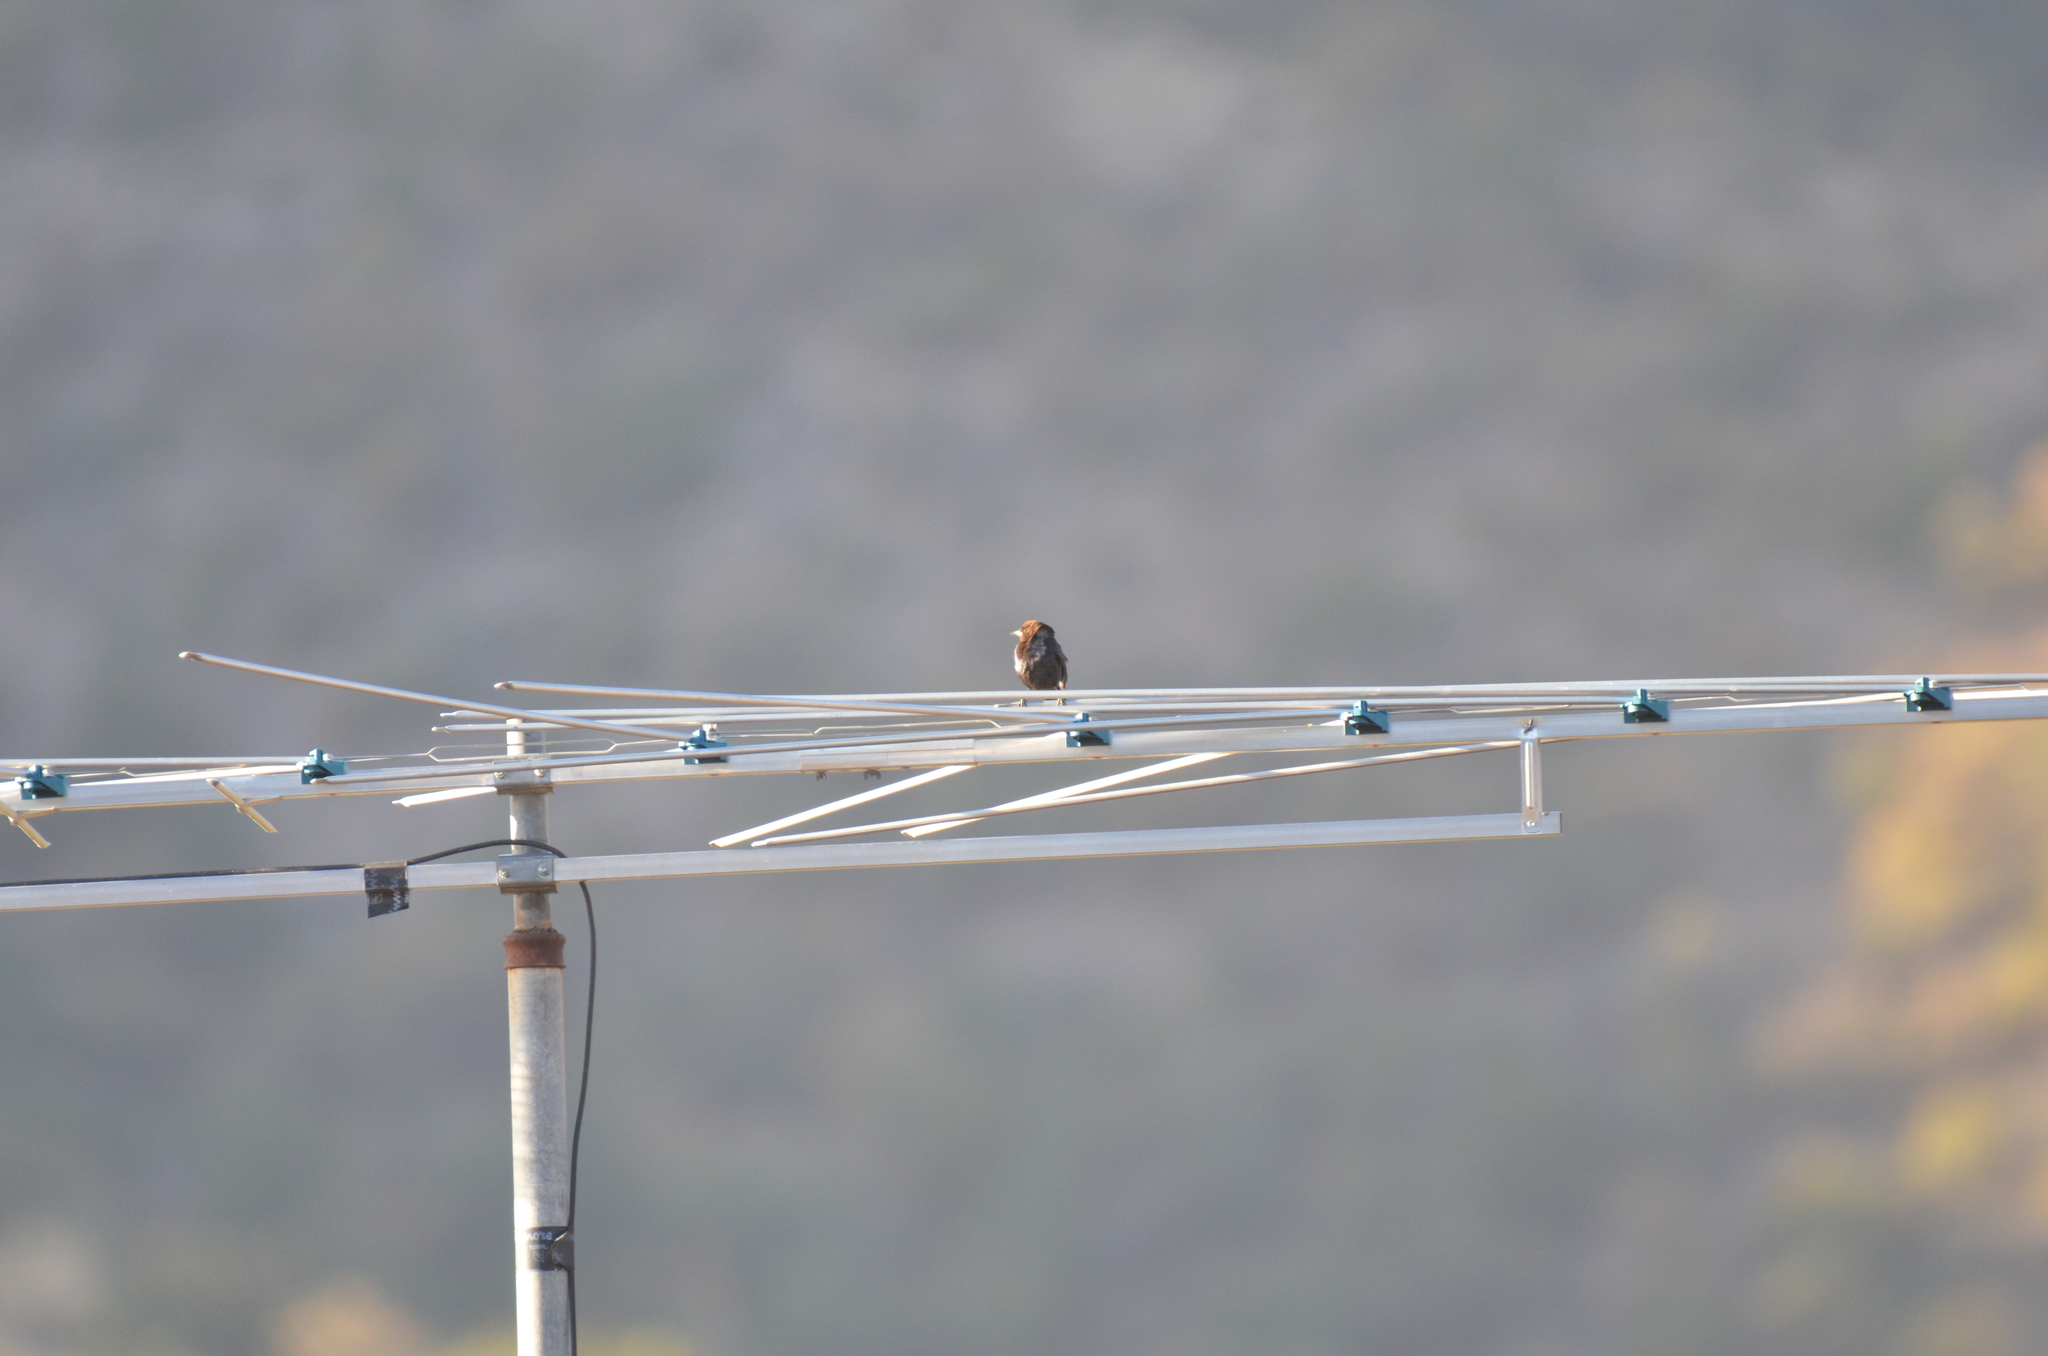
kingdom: Animalia
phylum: Chordata
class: Aves
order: Passeriformes
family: Icteridae
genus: Molothrus
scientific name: Molothrus ater
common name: Brown-headed cowbird
